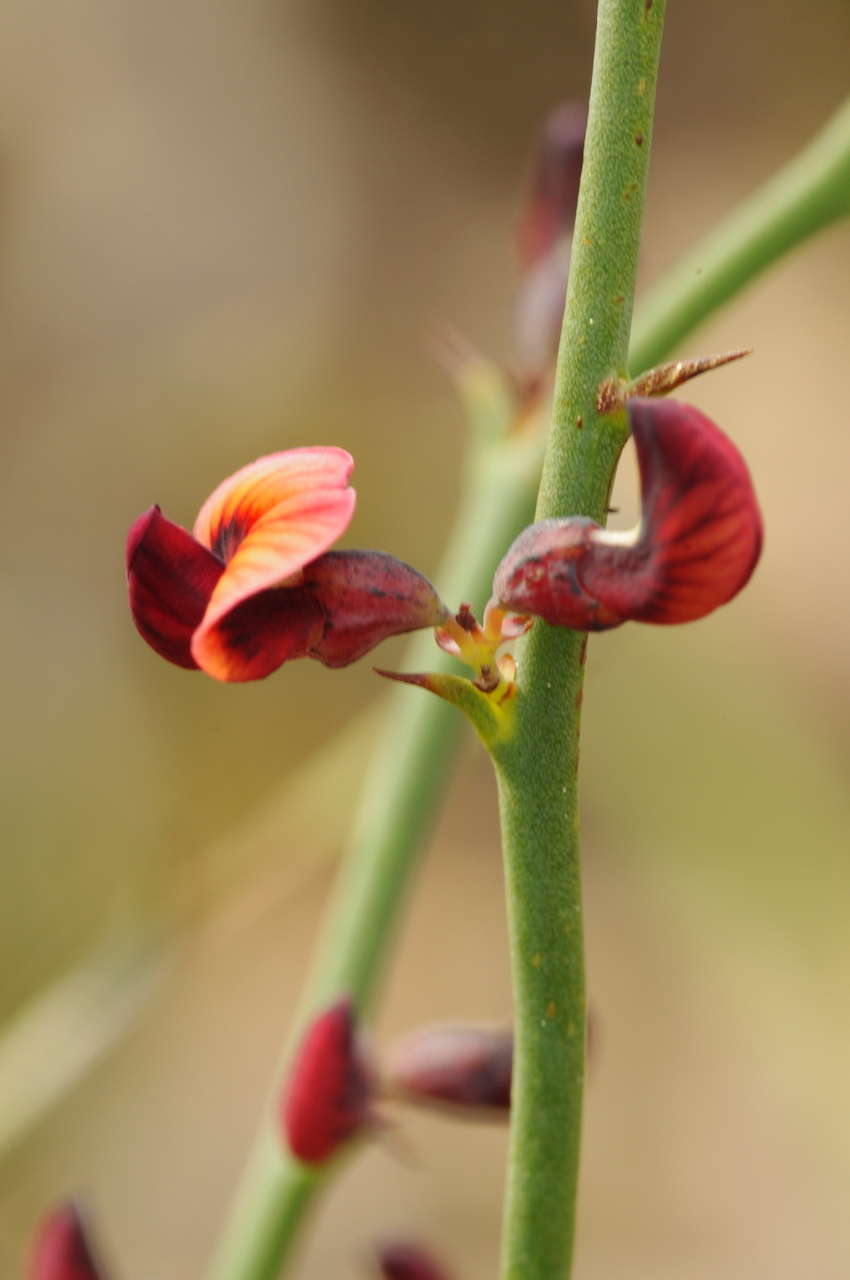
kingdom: Plantae
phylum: Tracheophyta
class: Magnoliopsida
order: Fabales
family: Fabaceae
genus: Daviesia
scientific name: Daviesia brevifolia
